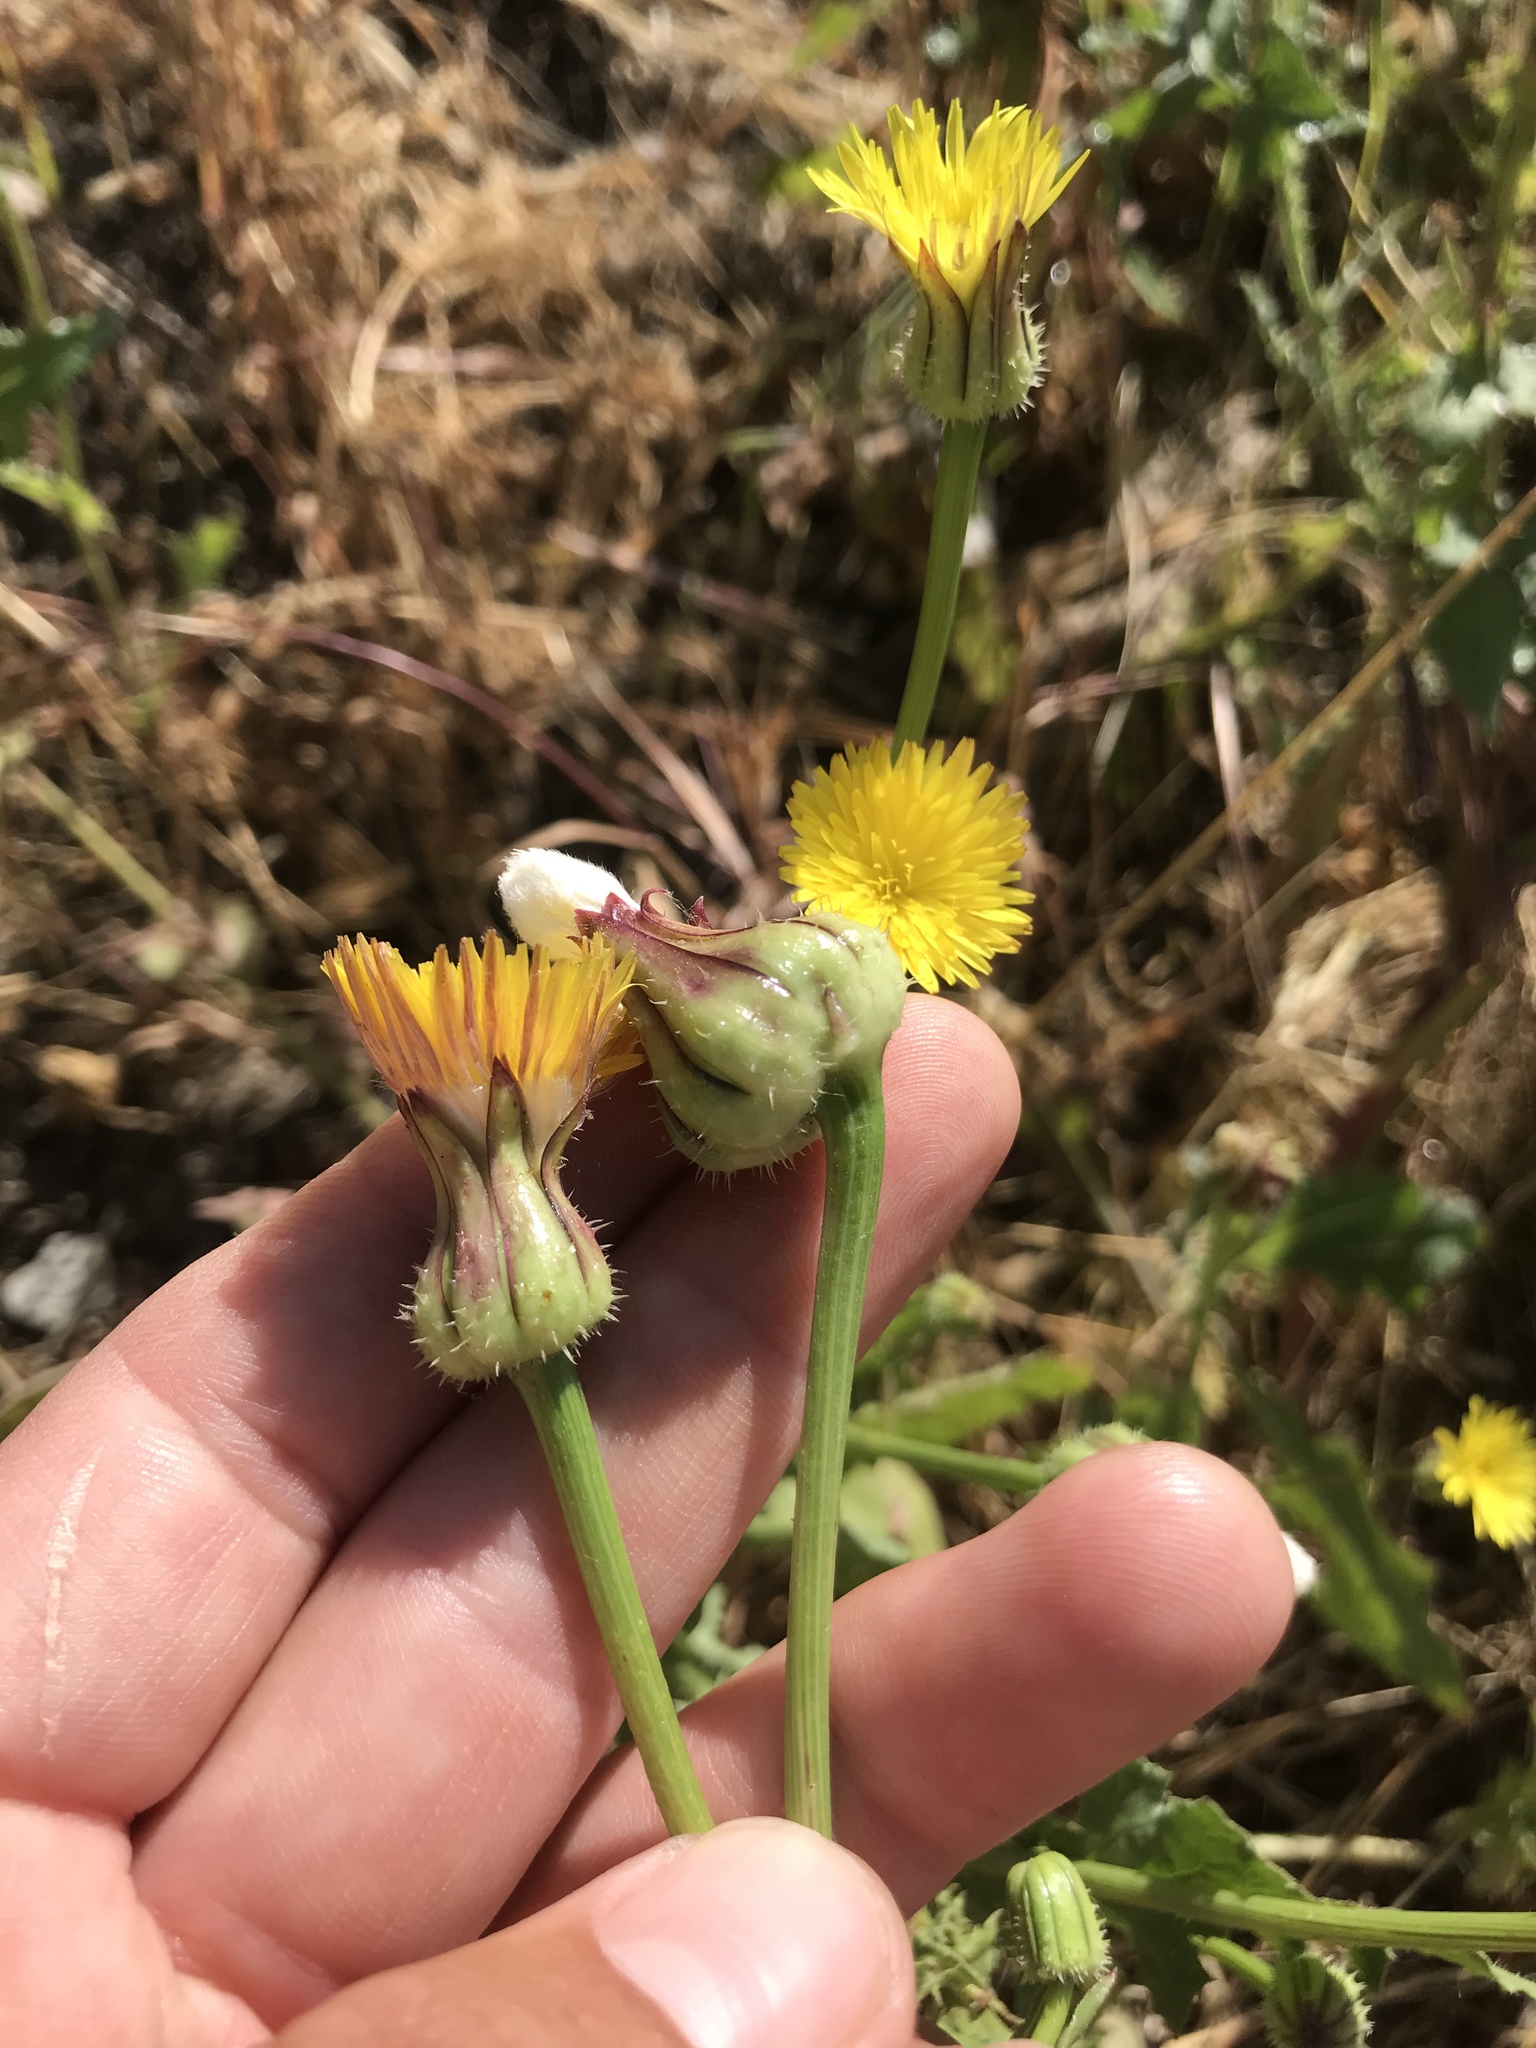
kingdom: Plantae
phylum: Tracheophyta
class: Magnoliopsida
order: Asterales
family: Asteraceae
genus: Urospermum
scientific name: Urospermum picroides
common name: False hawkbit
